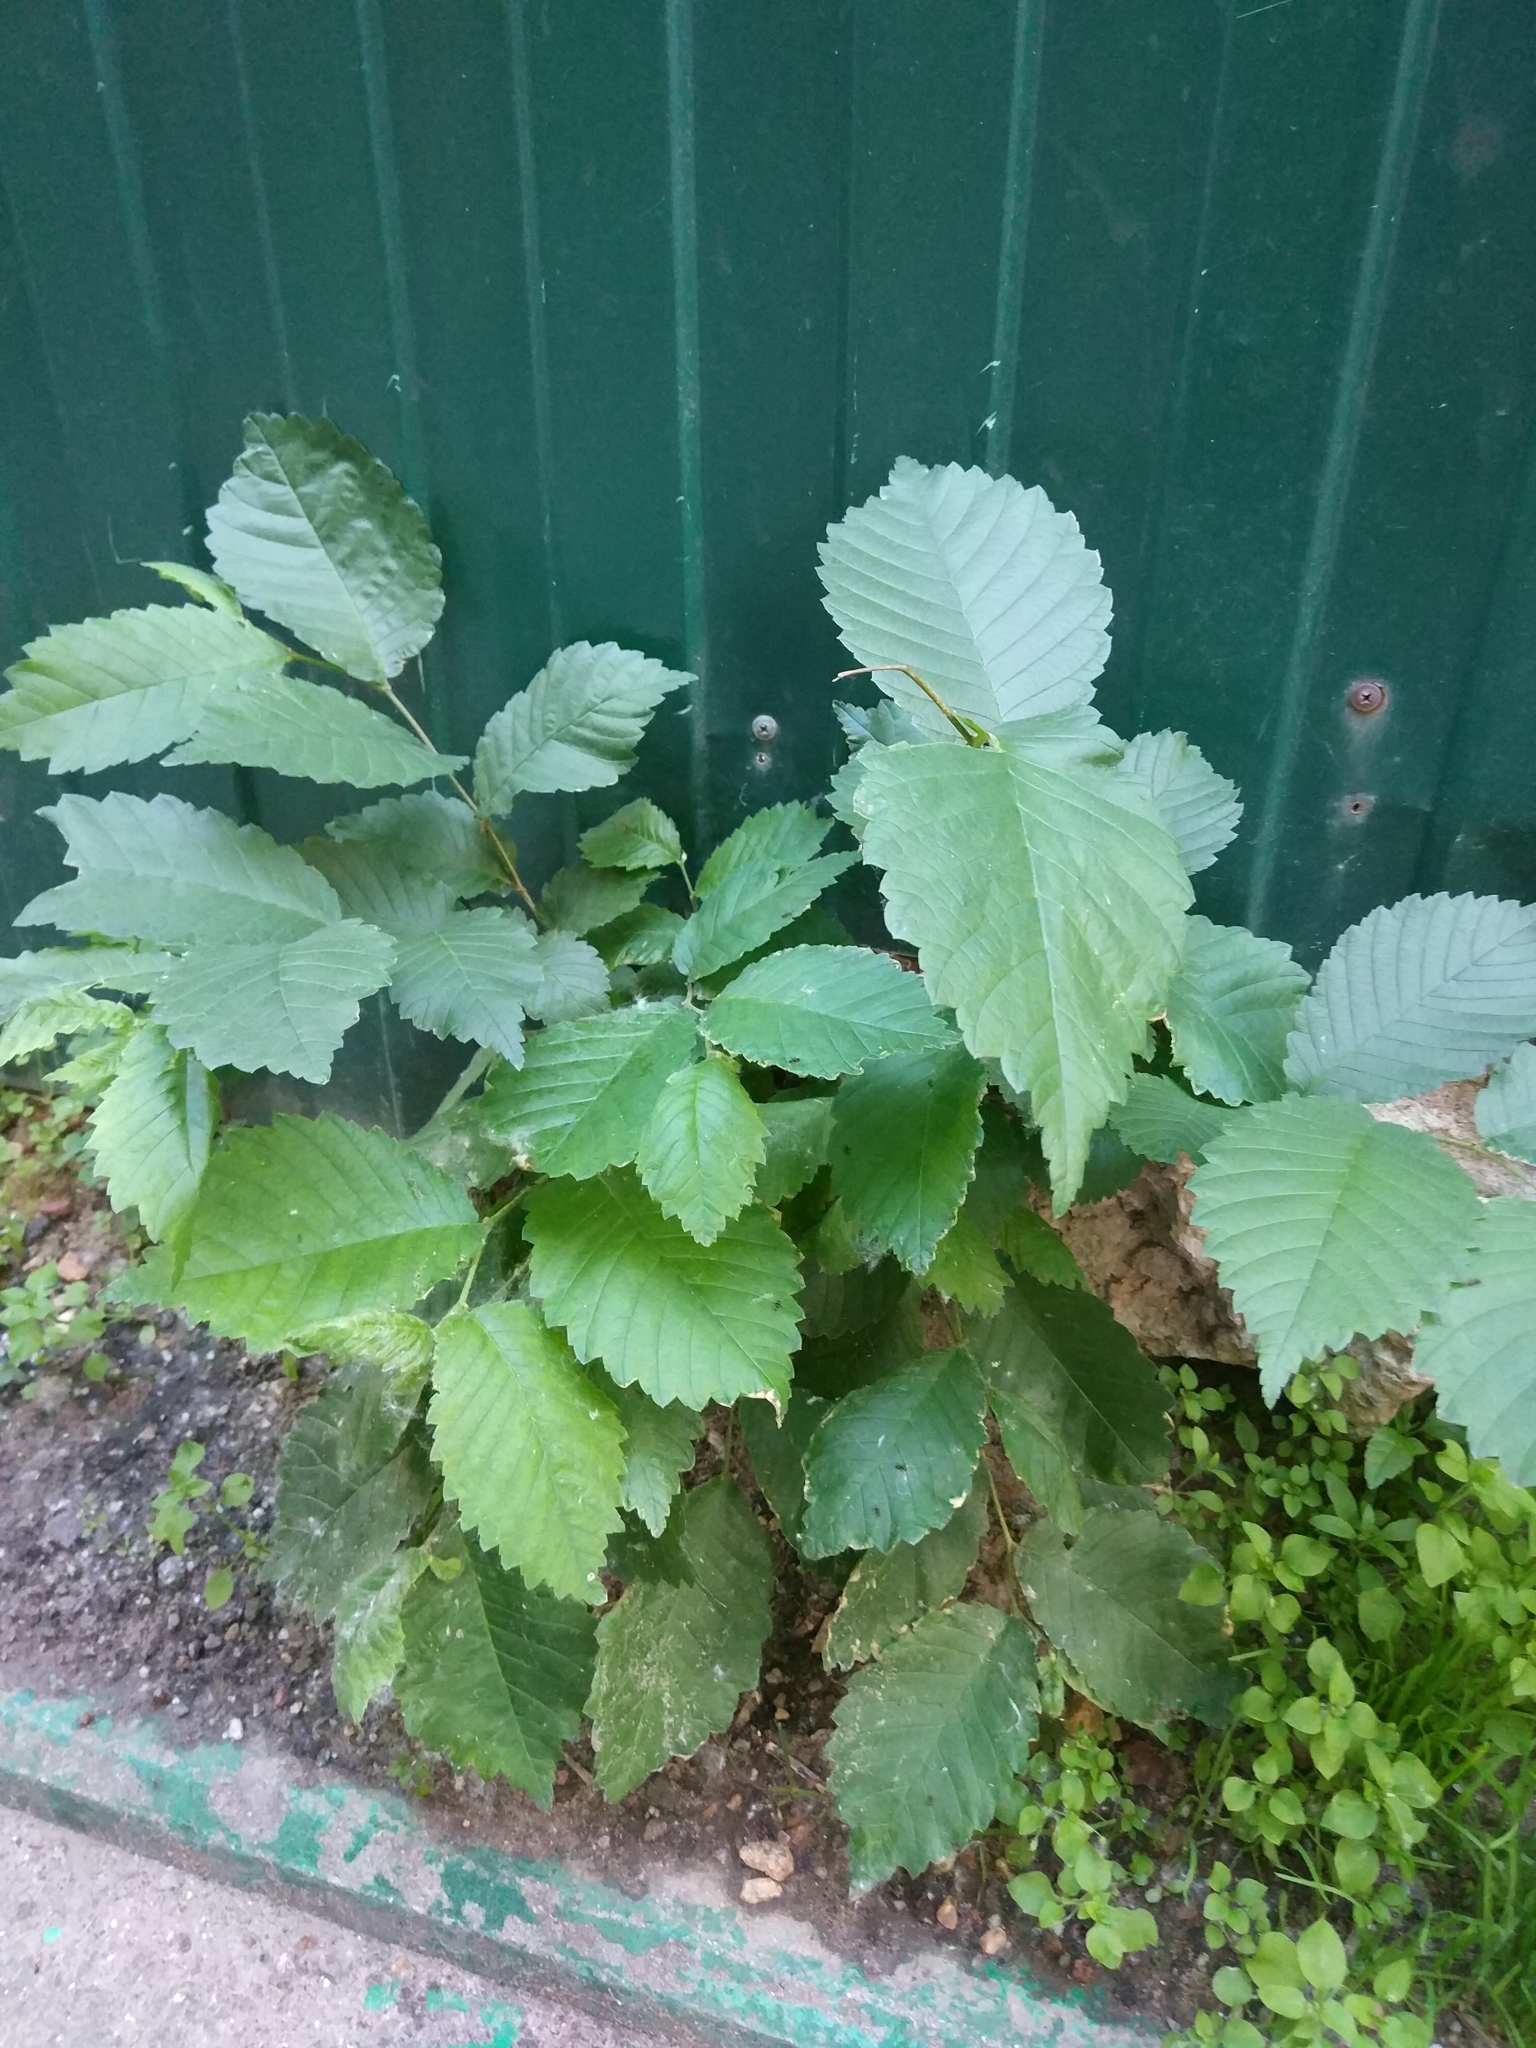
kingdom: Plantae
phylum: Tracheophyta
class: Magnoliopsida
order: Rosales
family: Ulmaceae
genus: Ulmus
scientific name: Ulmus laevis
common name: European white-elm
